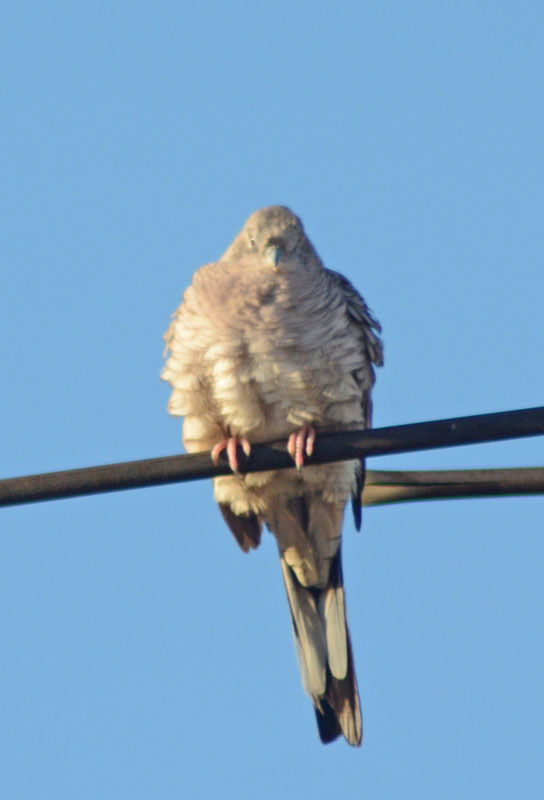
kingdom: Animalia
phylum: Chordata
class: Aves
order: Columbiformes
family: Columbidae
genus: Columbina
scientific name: Columbina inca
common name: Inca dove
